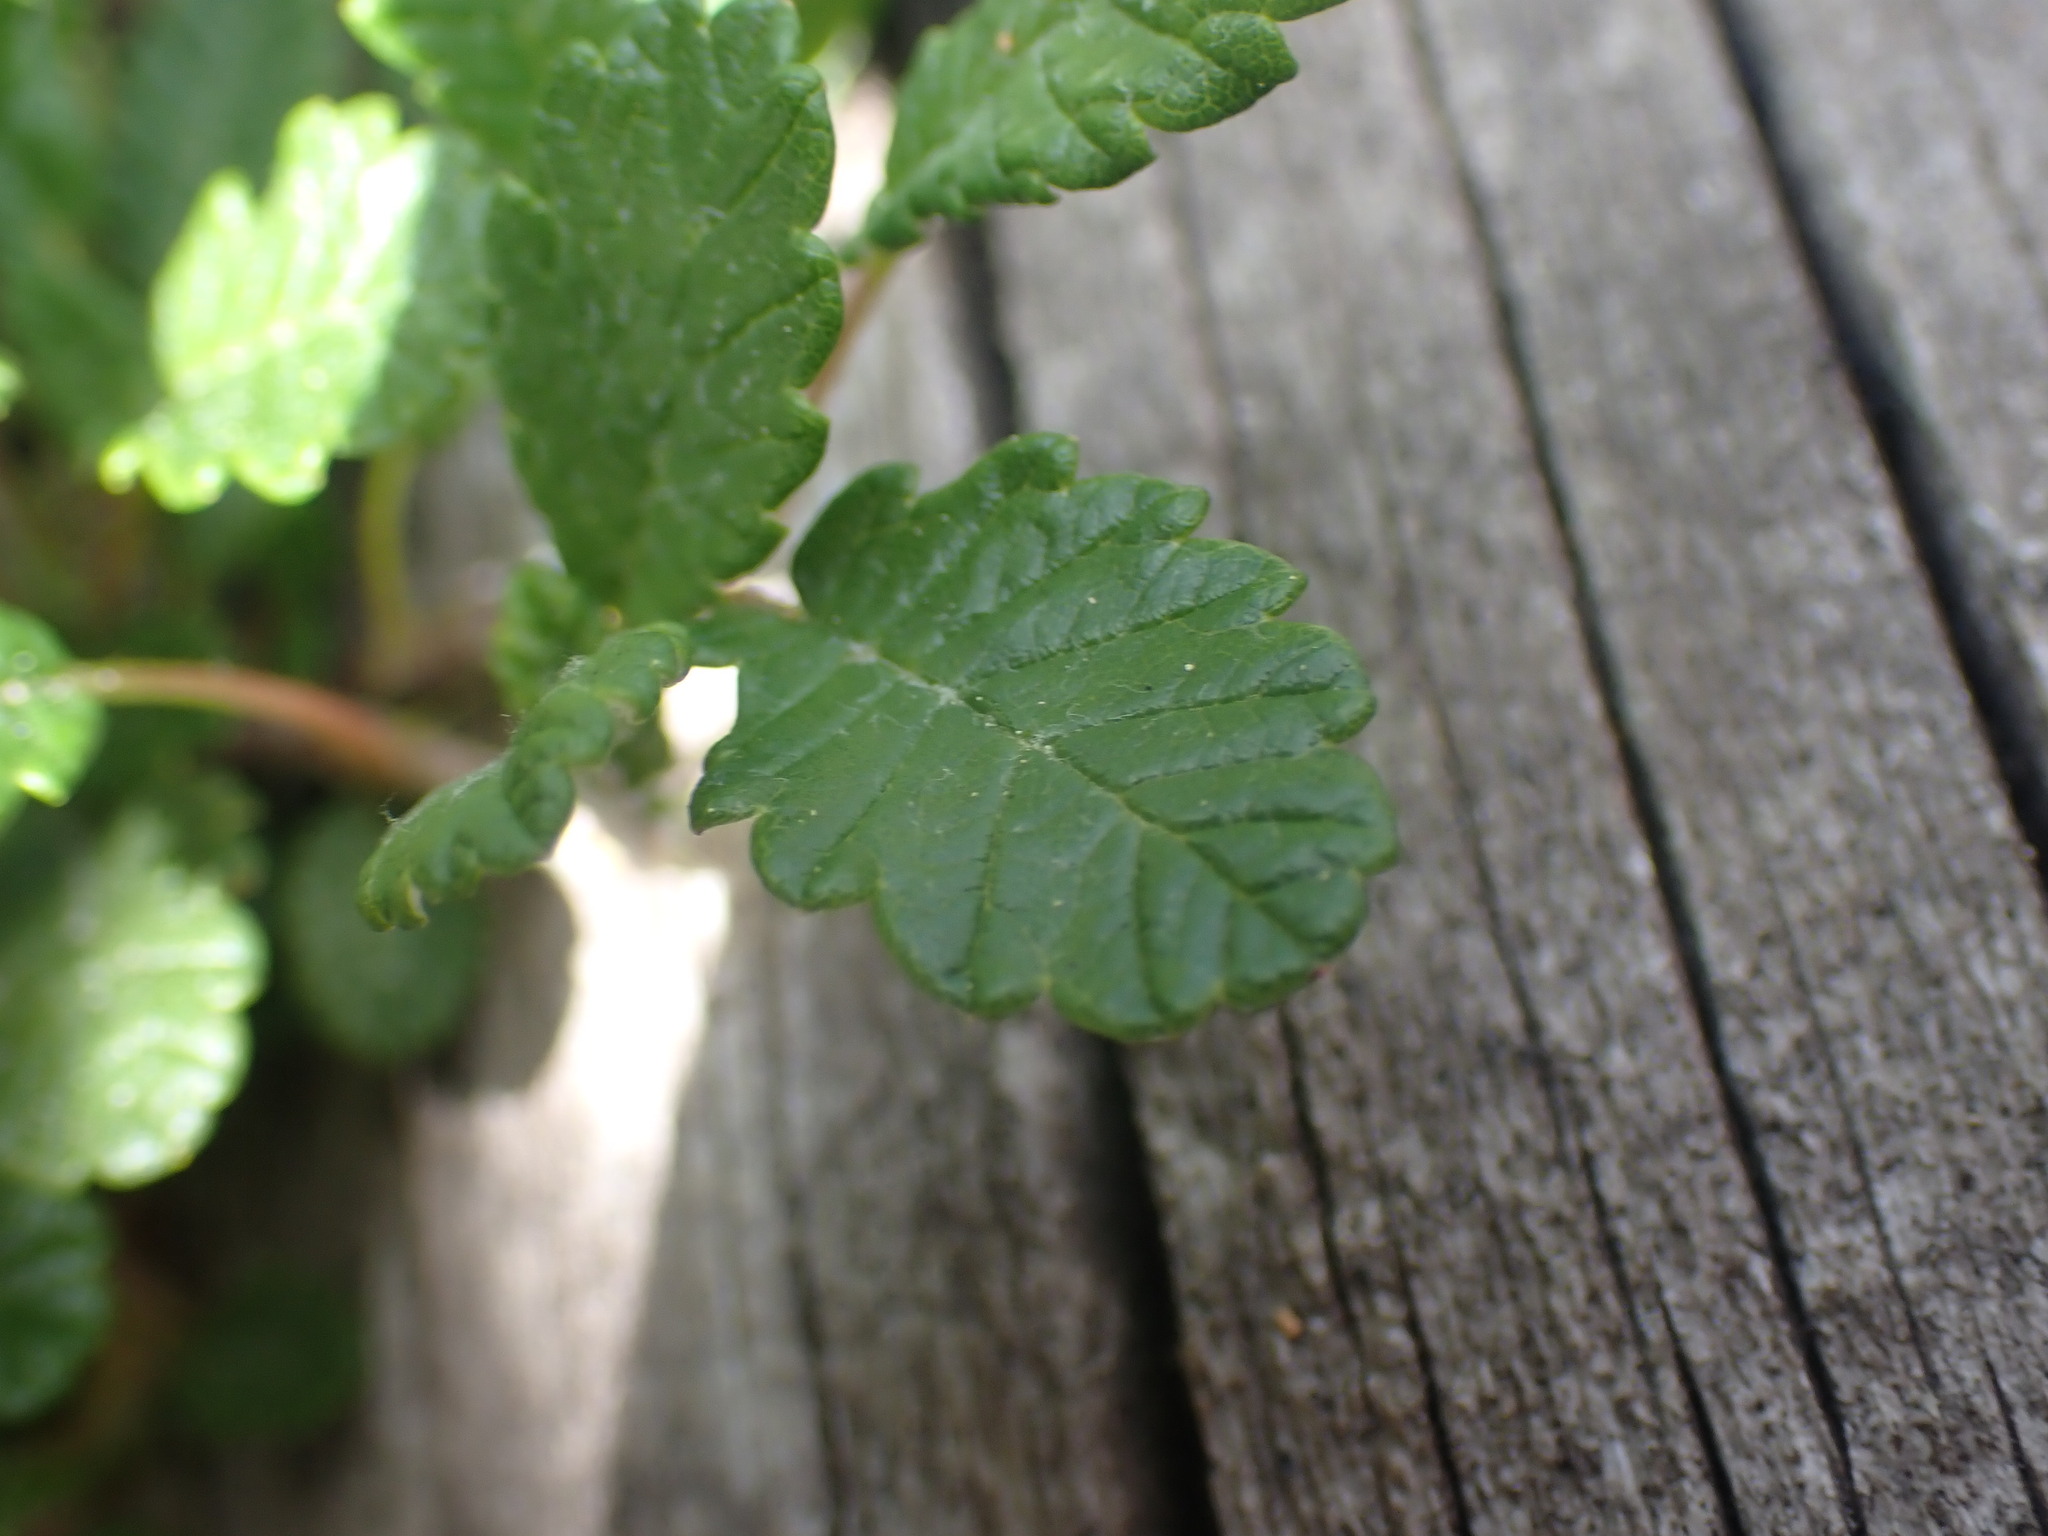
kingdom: Plantae
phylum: Tracheophyta
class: Magnoliopsida
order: Rosales
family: Rosaceae
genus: Dryas
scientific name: Dryas drummondii
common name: Drummond's dryad
